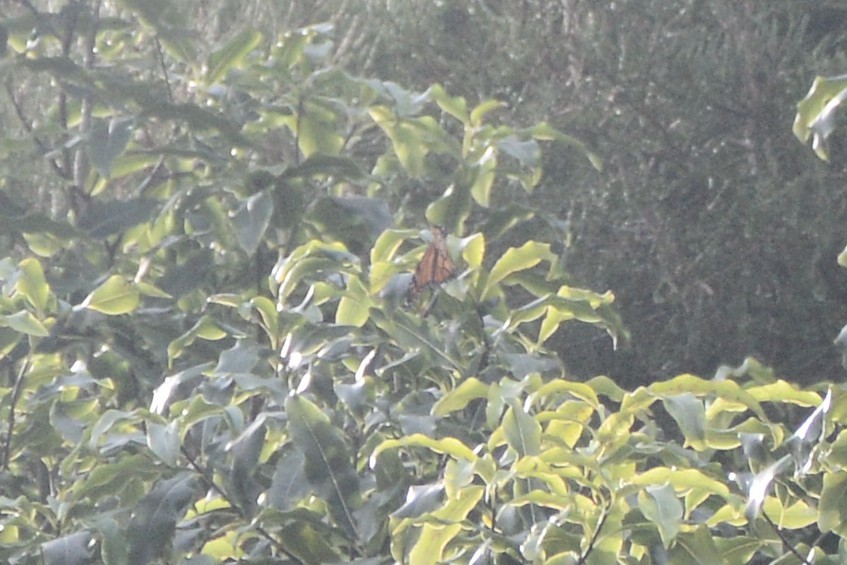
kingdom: Animalia
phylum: Arthropoda
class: Insecta
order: Lepidoptera
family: Nymphalidae
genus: Danaus
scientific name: Danaus plexippus
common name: Monarch
